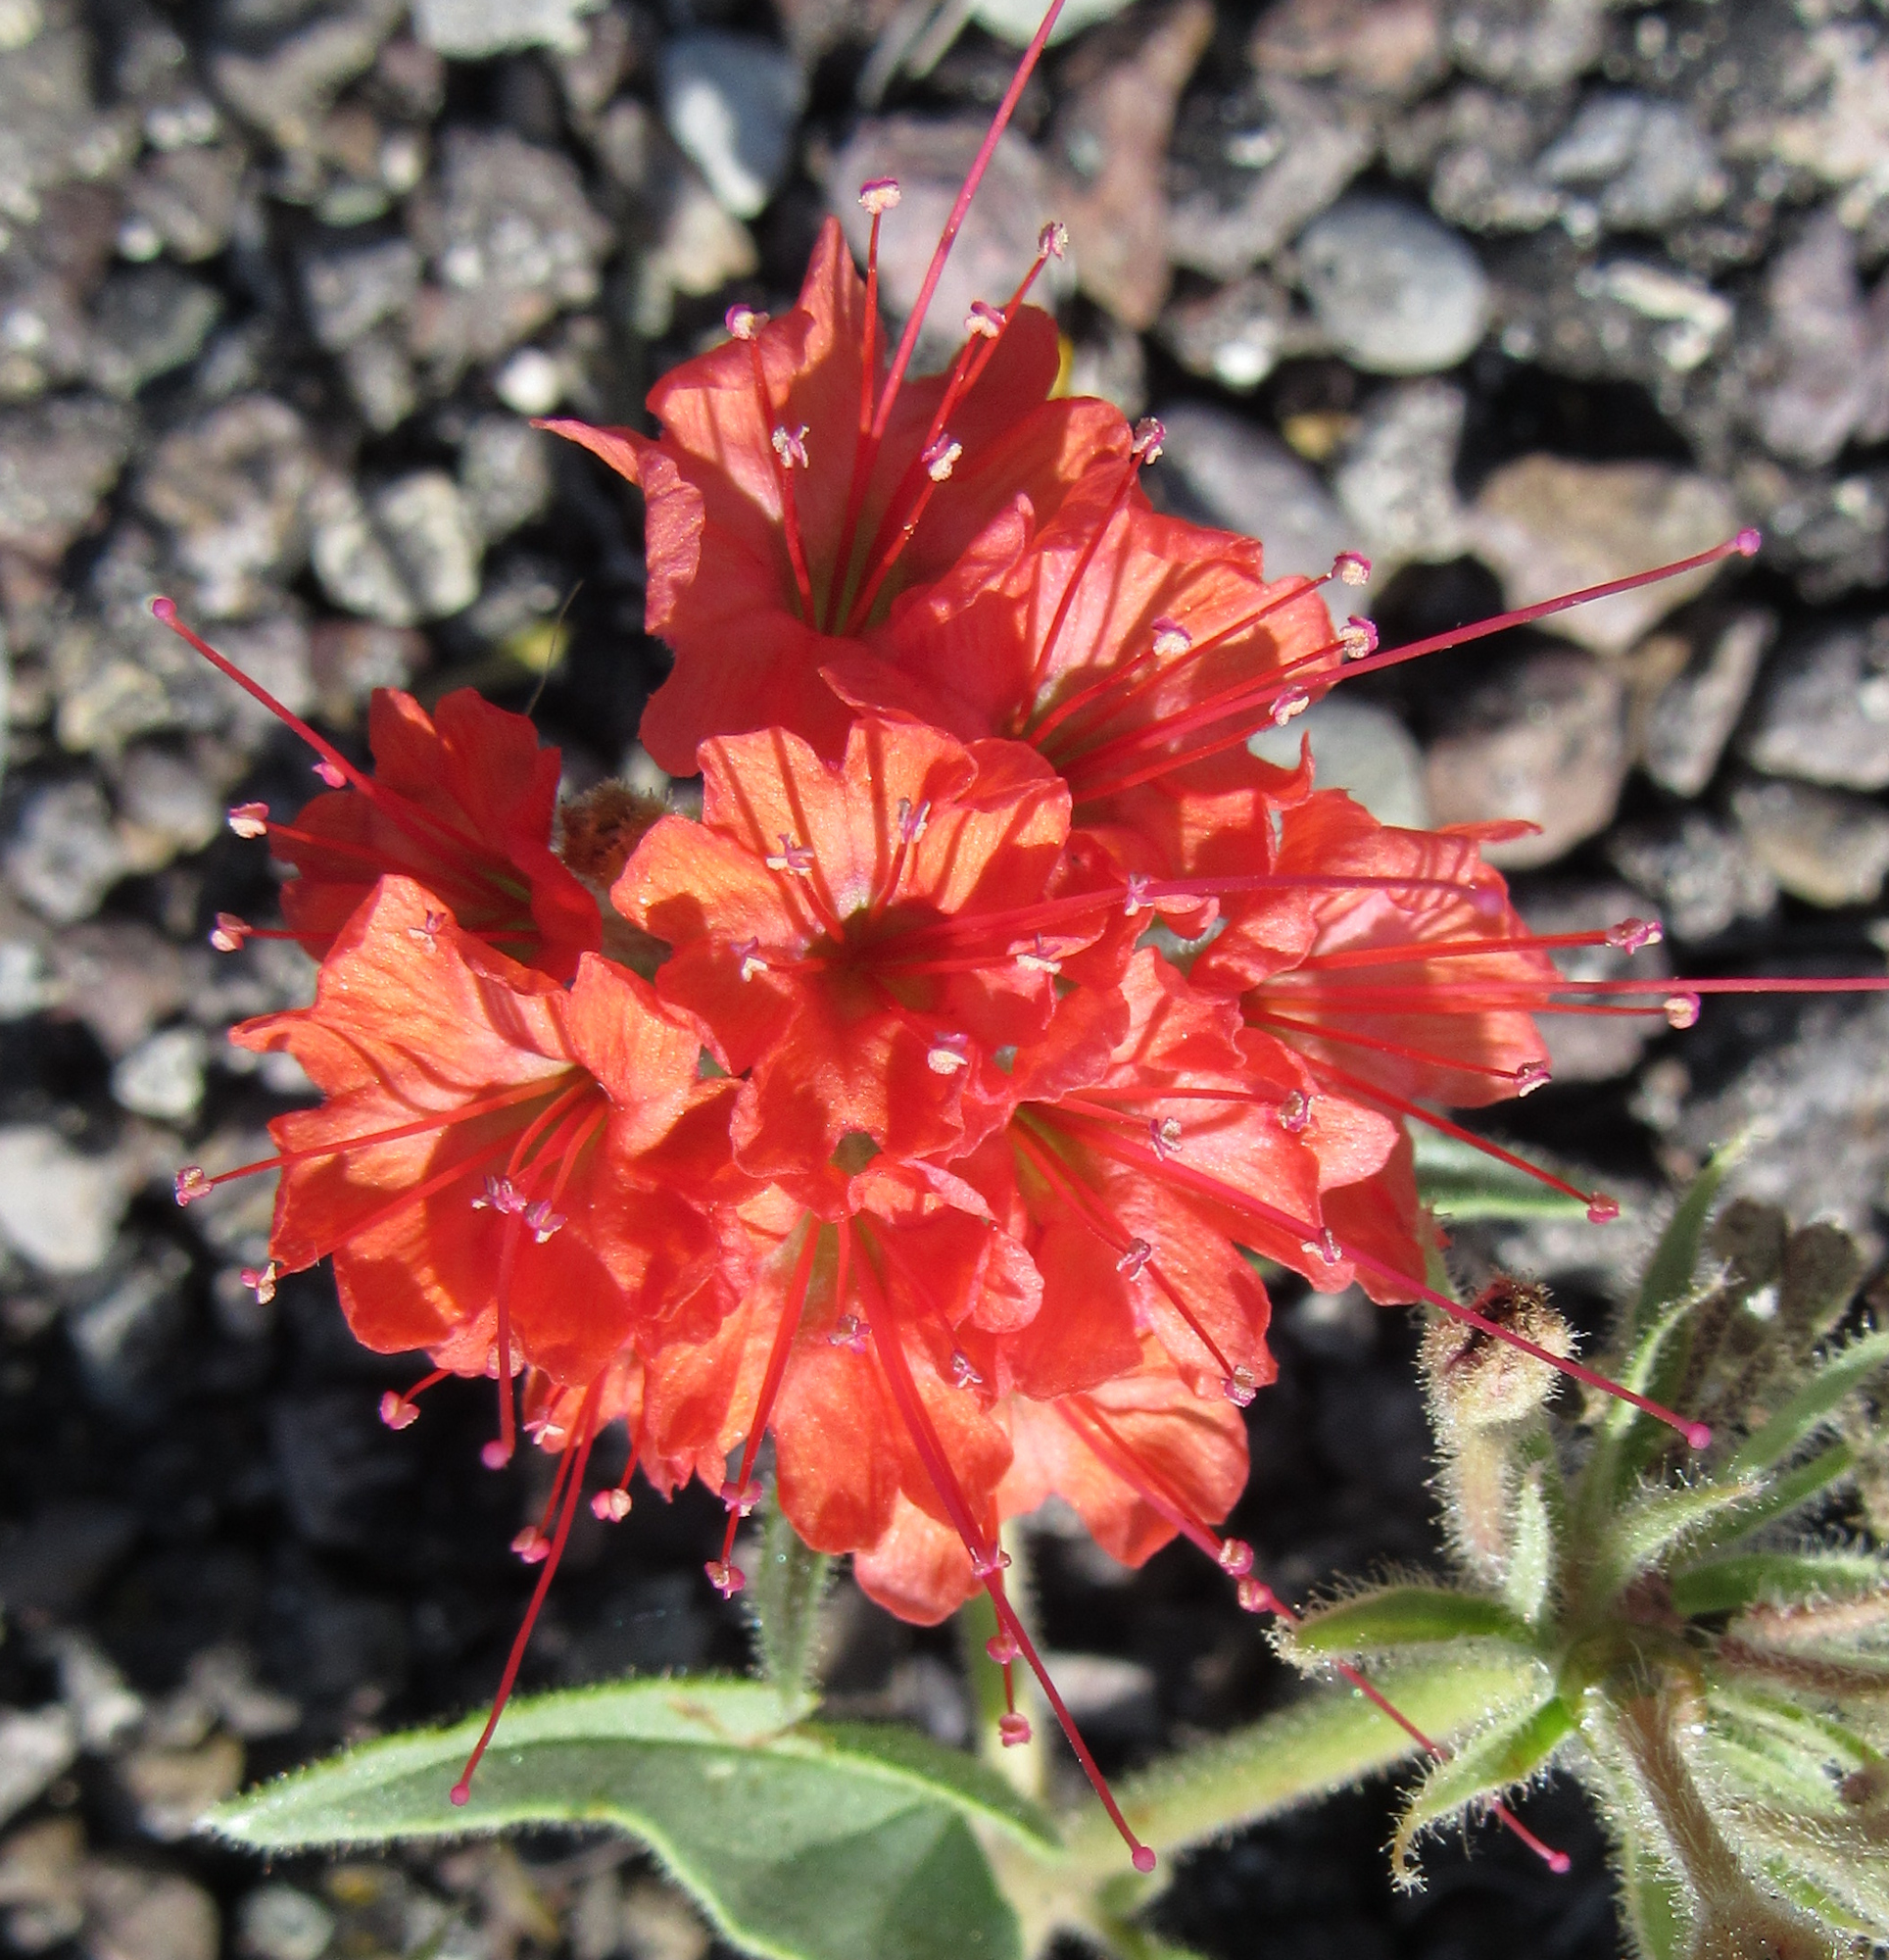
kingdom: Plantae
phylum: Tracheophyta
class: Magnoliopsida
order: Caryophyllales
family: Nyctaginaceae
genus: Nyctaginia
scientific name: Nyctaginia capitata
